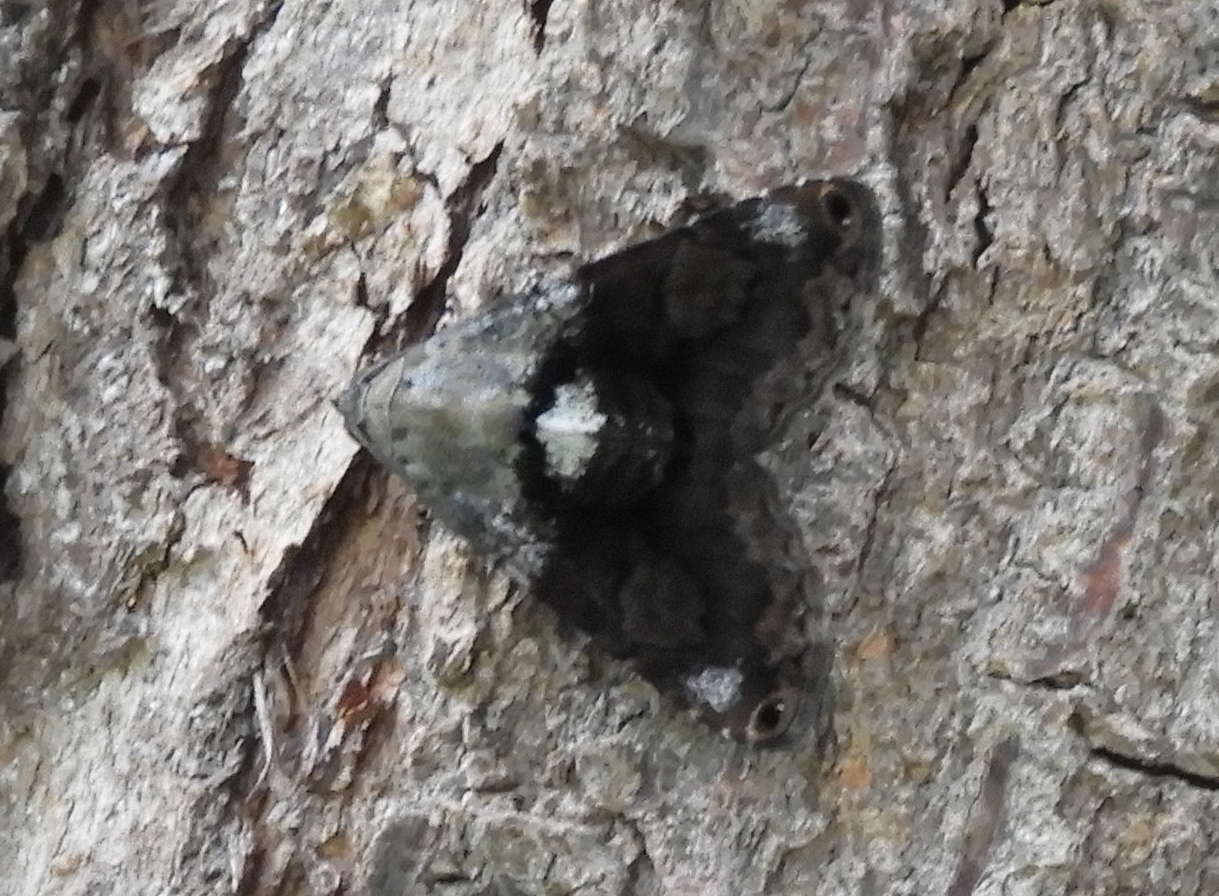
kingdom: Animalia
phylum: Arthropoda
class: Insecta
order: Lepidoptera
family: Erebidae
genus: Acolasis
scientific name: Acolasis bibitrix
